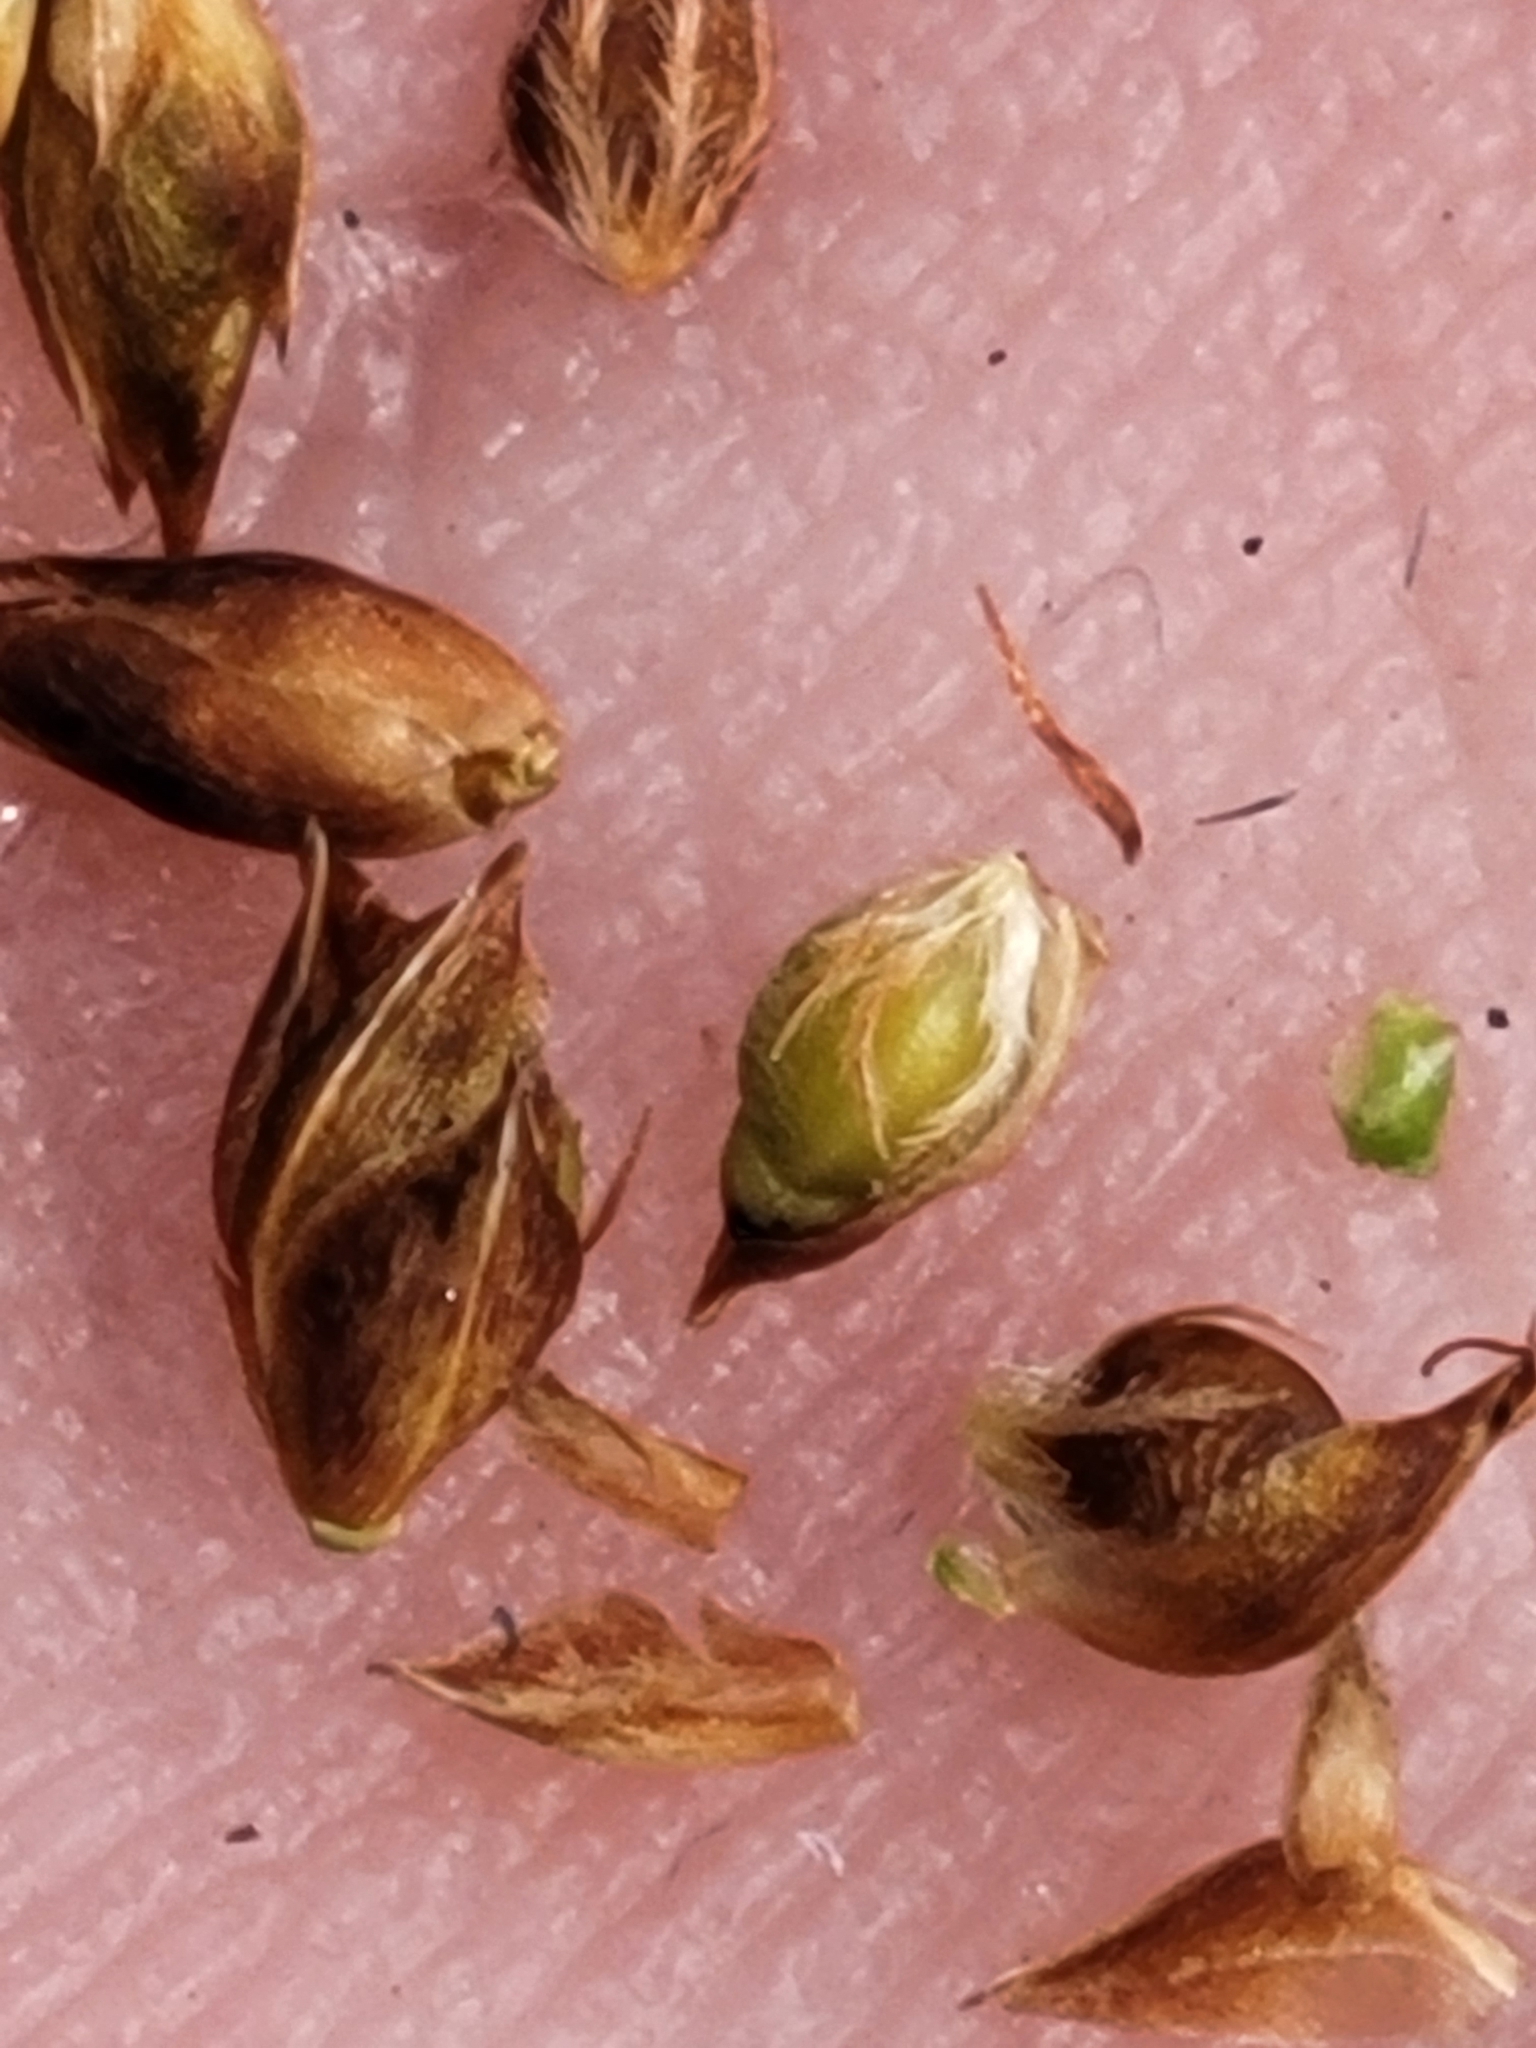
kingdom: Plantae
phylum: Tracheophyta
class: Liliopsida
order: Poales
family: Cyperaceae
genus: Rhynchospora
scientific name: Rhynchospora plumosa
